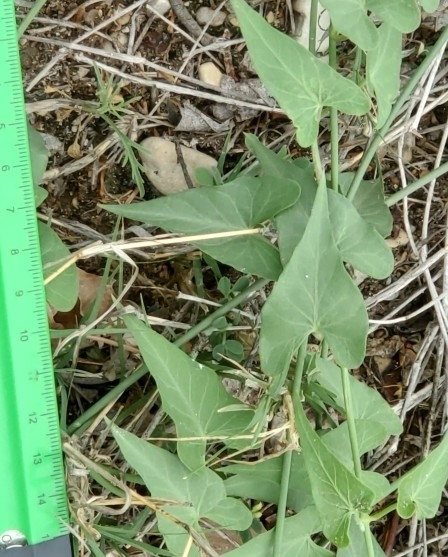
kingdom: Plantae
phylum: Tracheophyta
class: Magnoliopsida
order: Gentianales
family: Apocynaceae
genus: Funastrum
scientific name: Funastrum cynanchoides
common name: Climbing-milkweed
